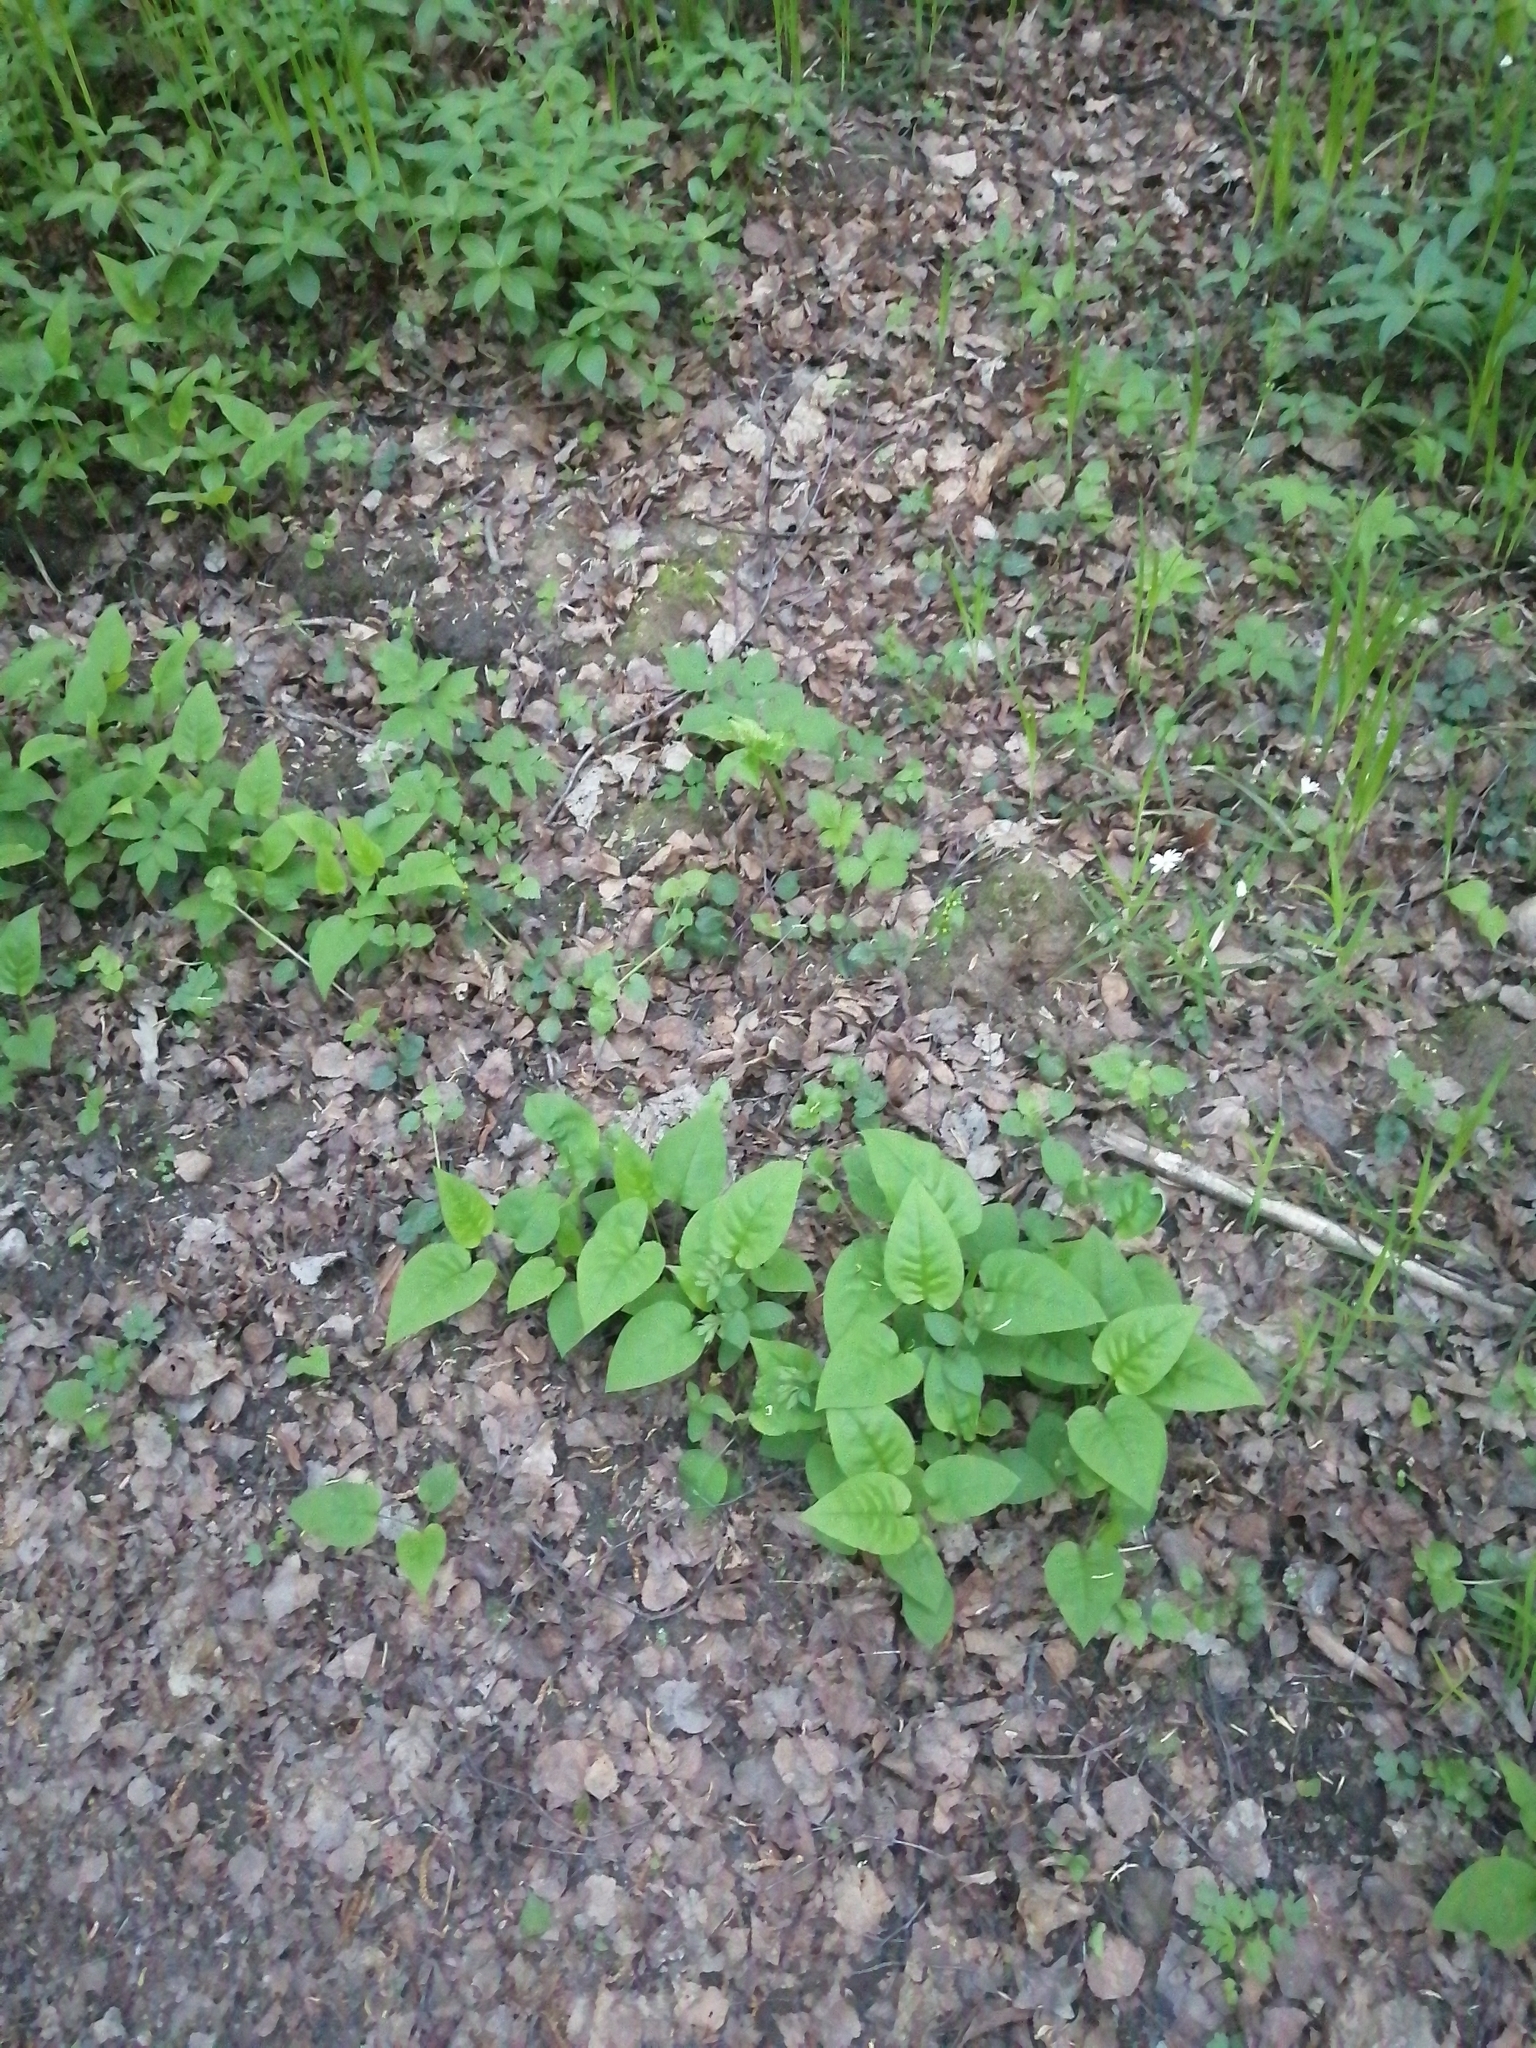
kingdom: Plantae
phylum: Tracheophyta
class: Magnoliopsida
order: Boraginales
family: Boraginaceae
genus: Pulmonaria
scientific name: Pulmonaria obscura
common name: Suffolk lungwort
